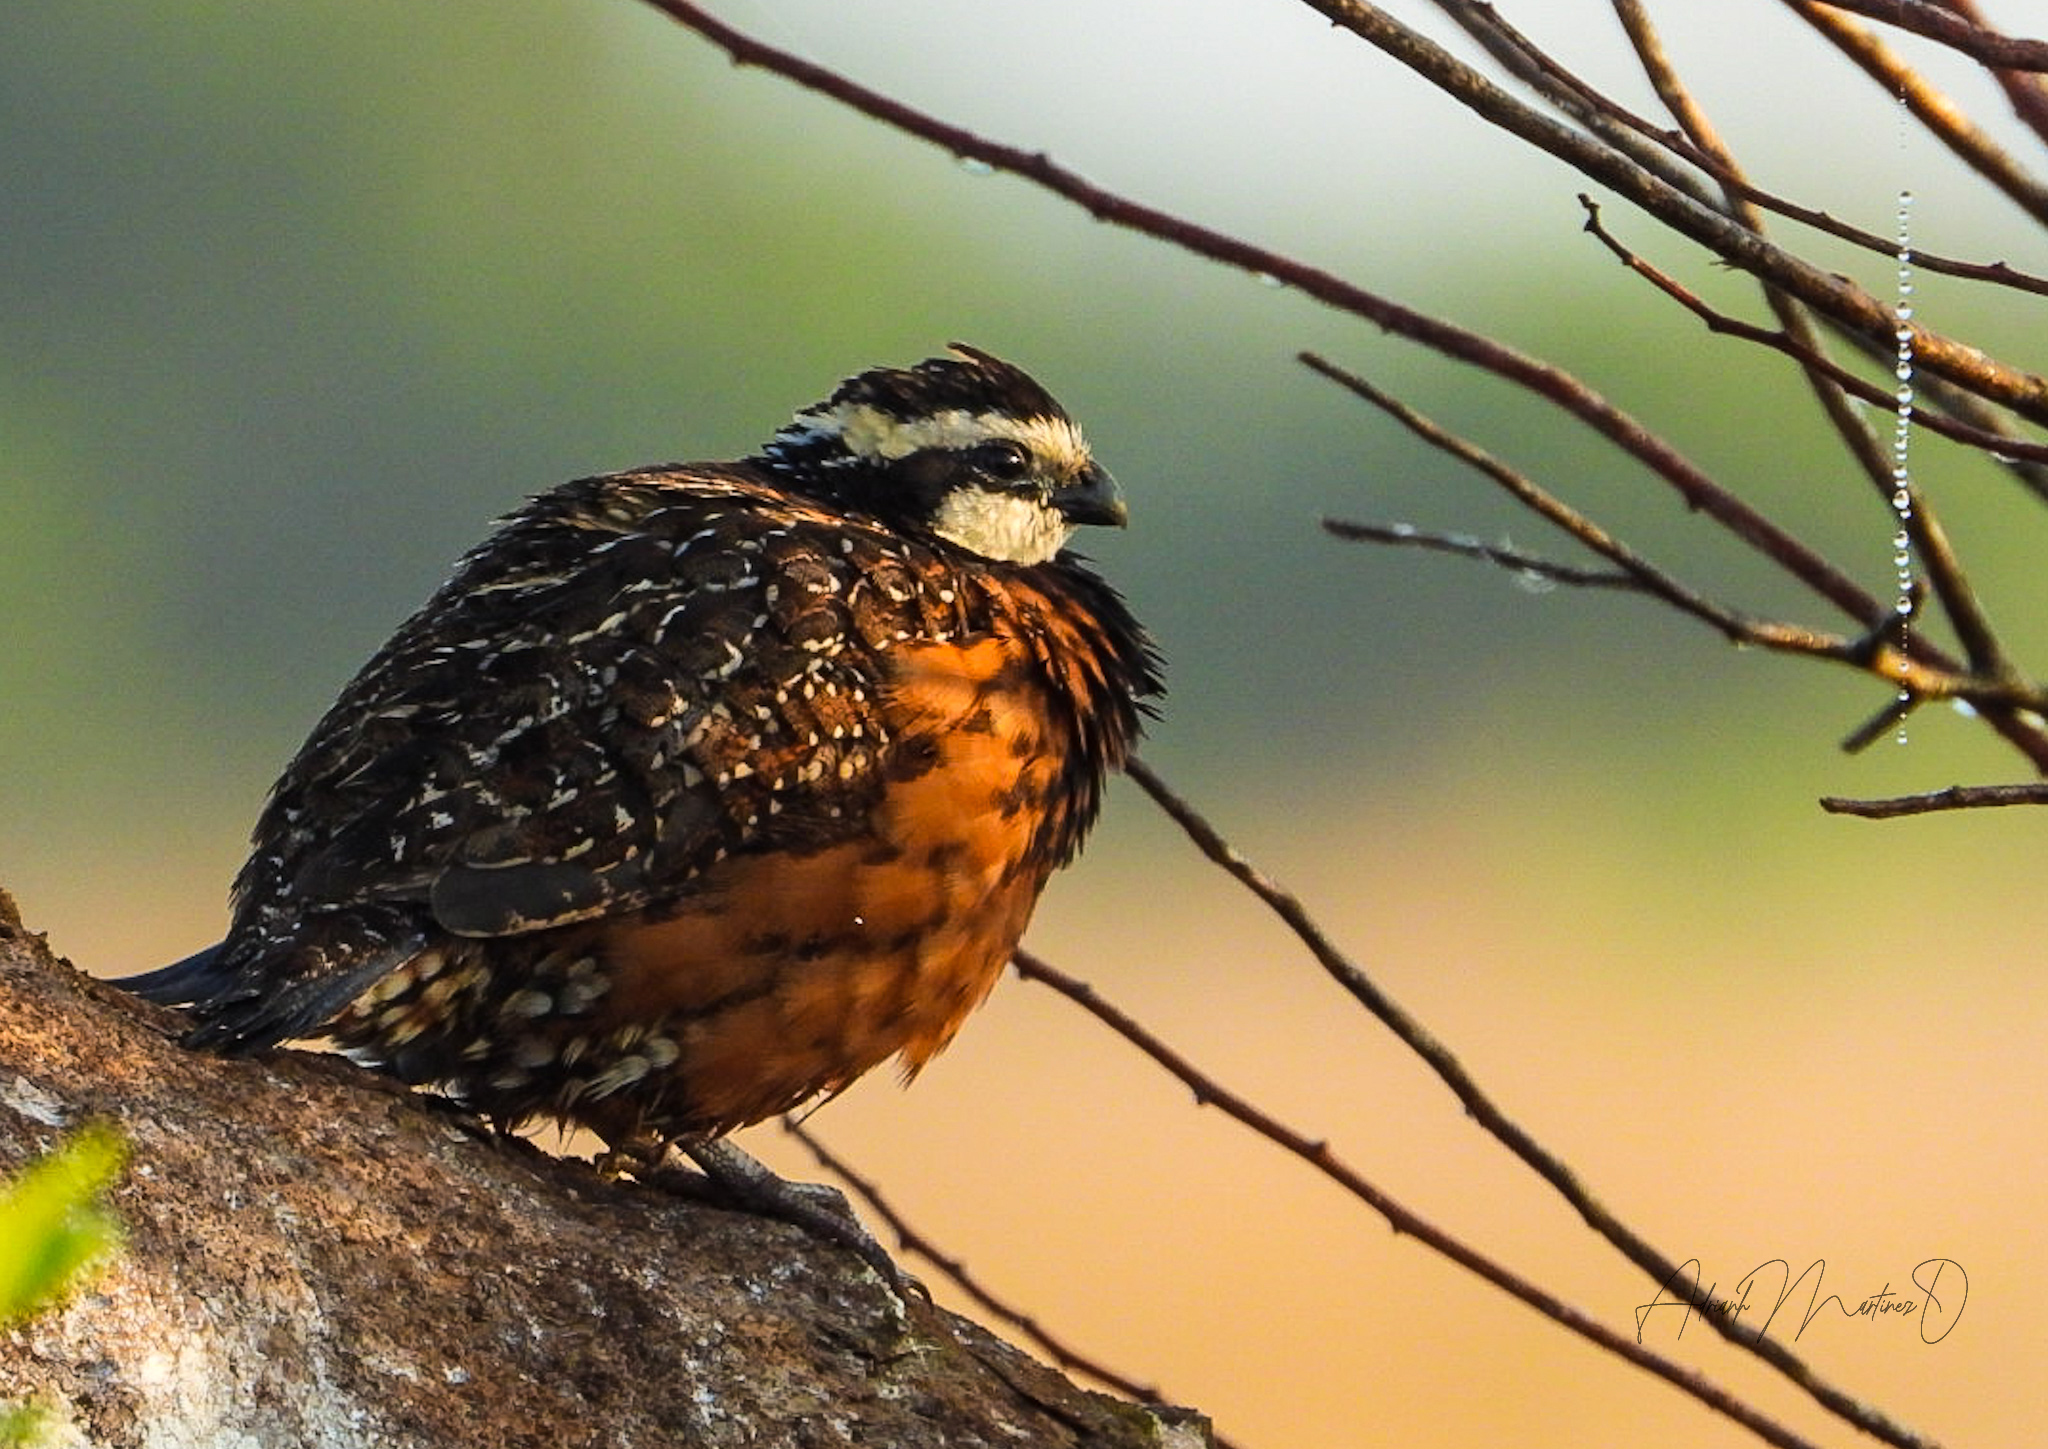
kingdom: Animalia
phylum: Chordata
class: Aves
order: Galliformes
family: Odontophoridae
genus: Colinus
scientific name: Colinus virginianus
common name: Northern bobwhite
